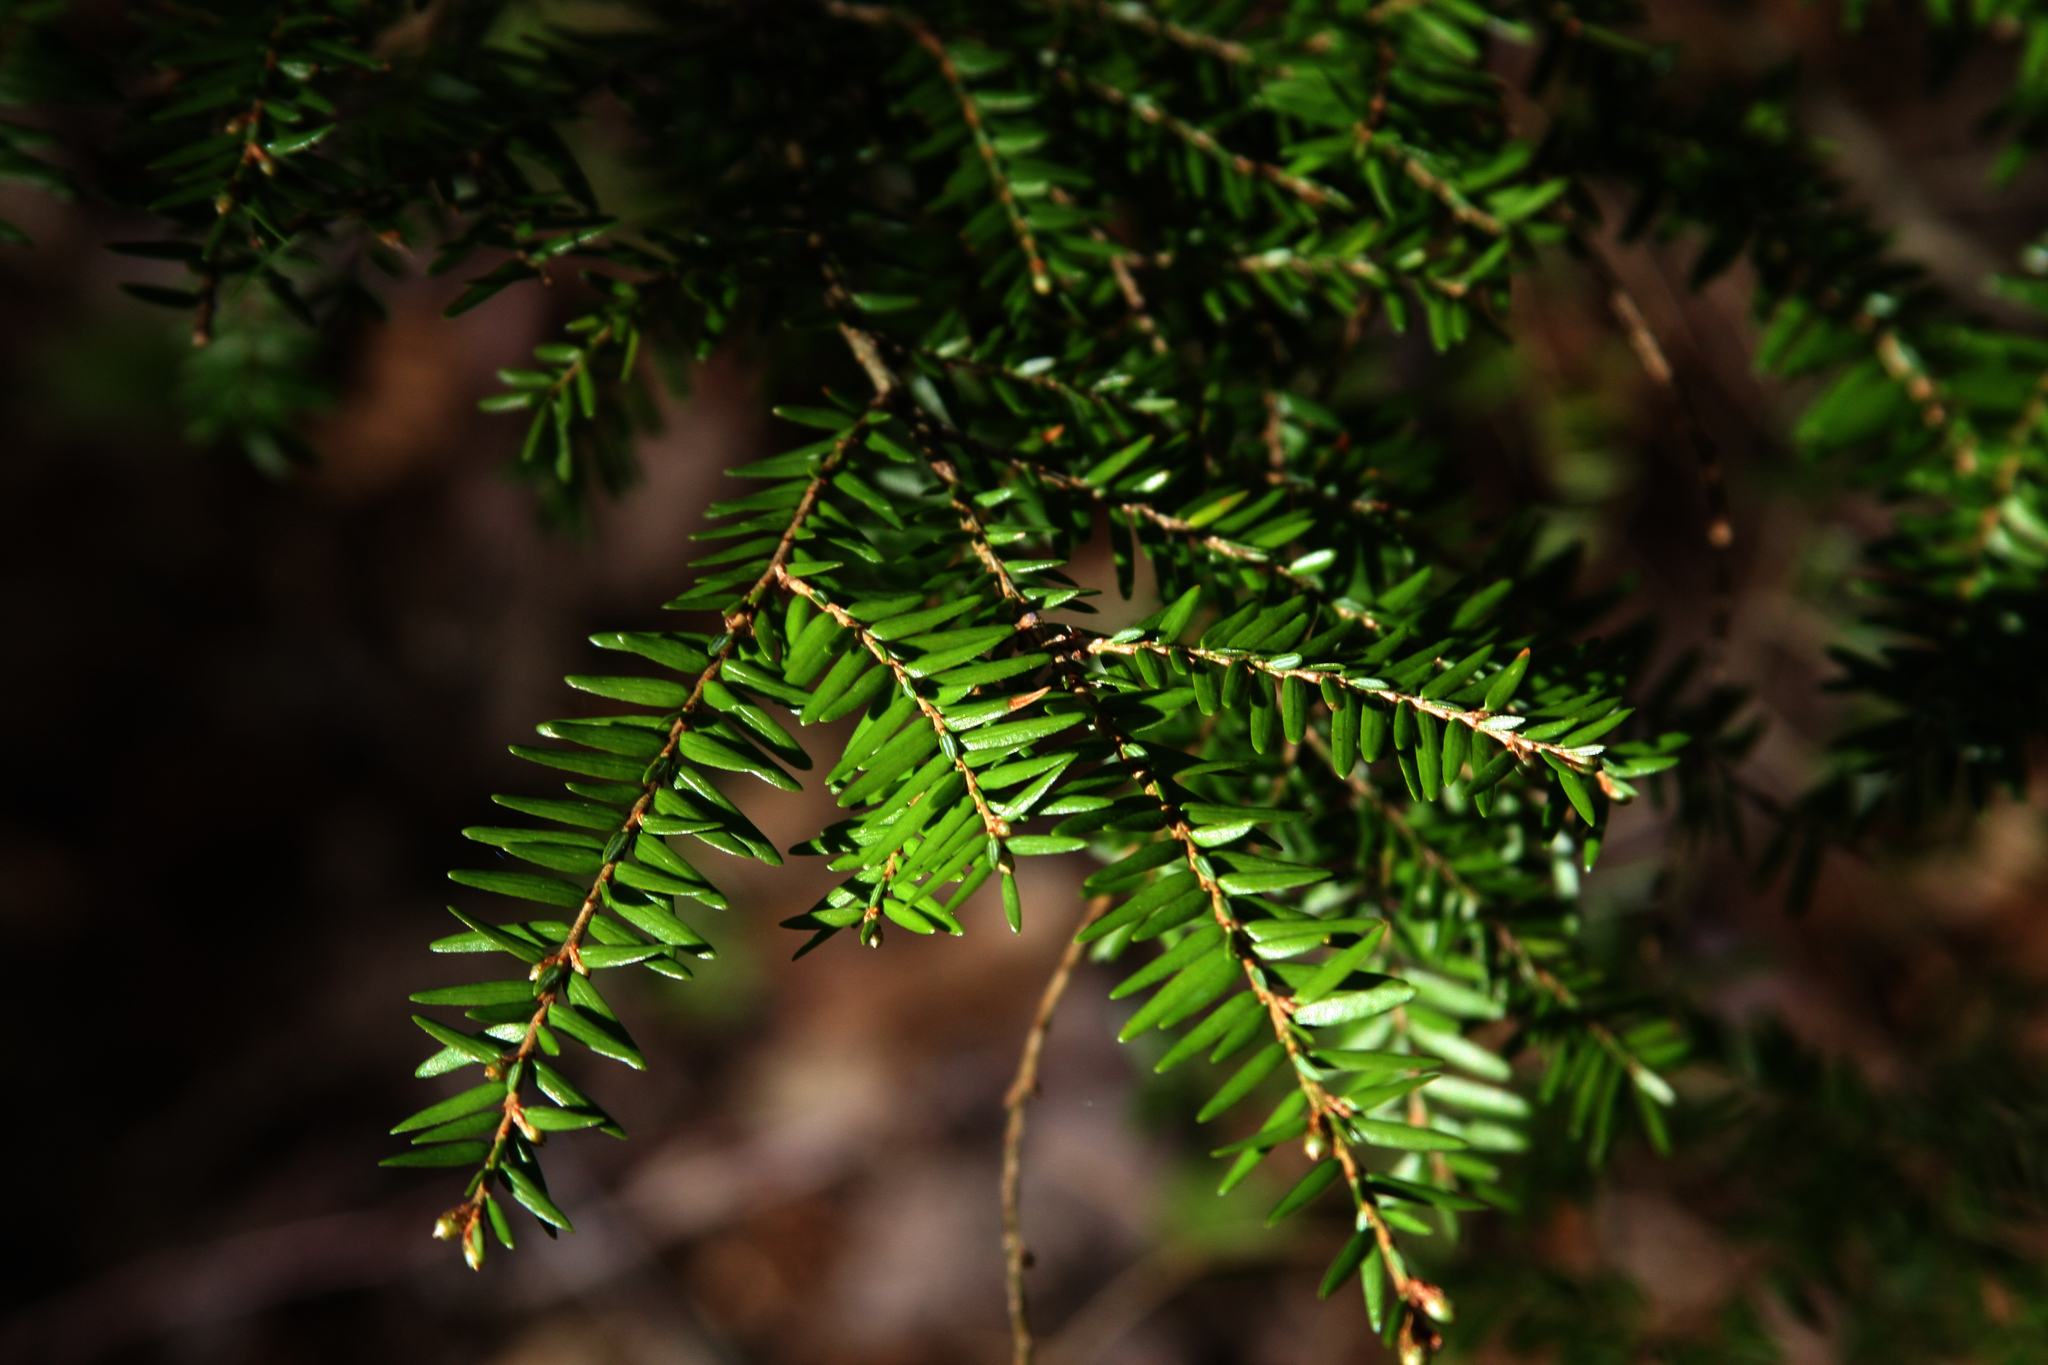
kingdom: Plantae
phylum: Tracheophyta
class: Pinopsida
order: Pinales
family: Pinaceae
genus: Tsuga
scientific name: Tsuga canadensis
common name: Eastern hemlock
